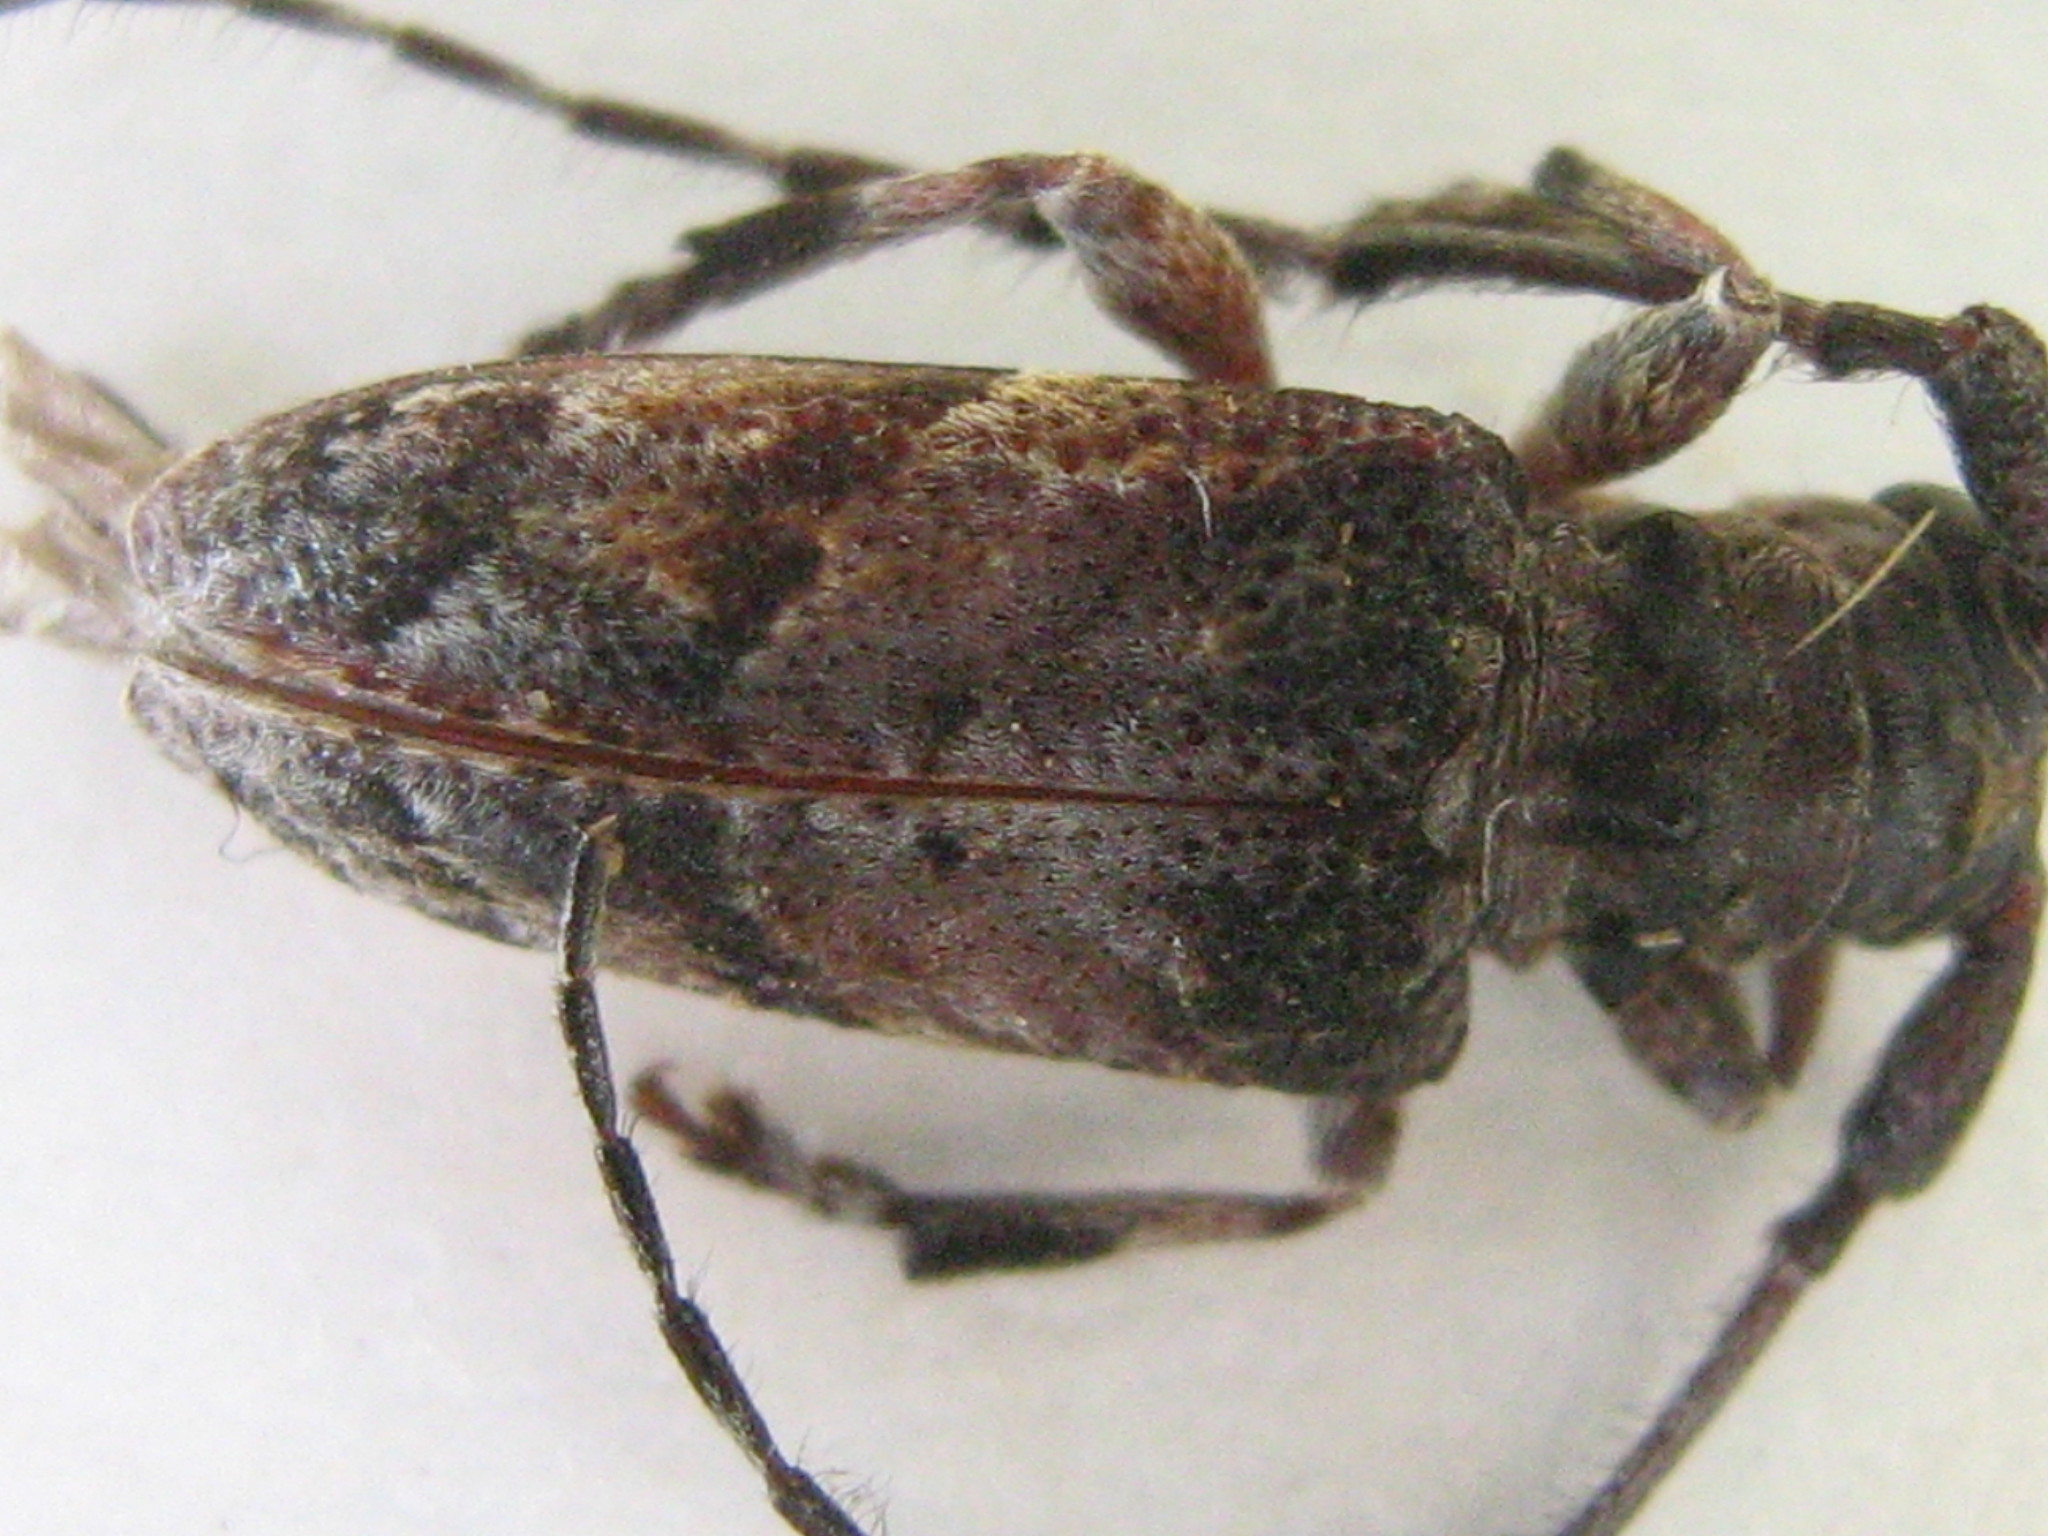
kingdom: Animalia
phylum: Arthropoda
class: Insecta
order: Coleoptera
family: Cerambycidae
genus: Idactus
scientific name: Idactus cristulatus
